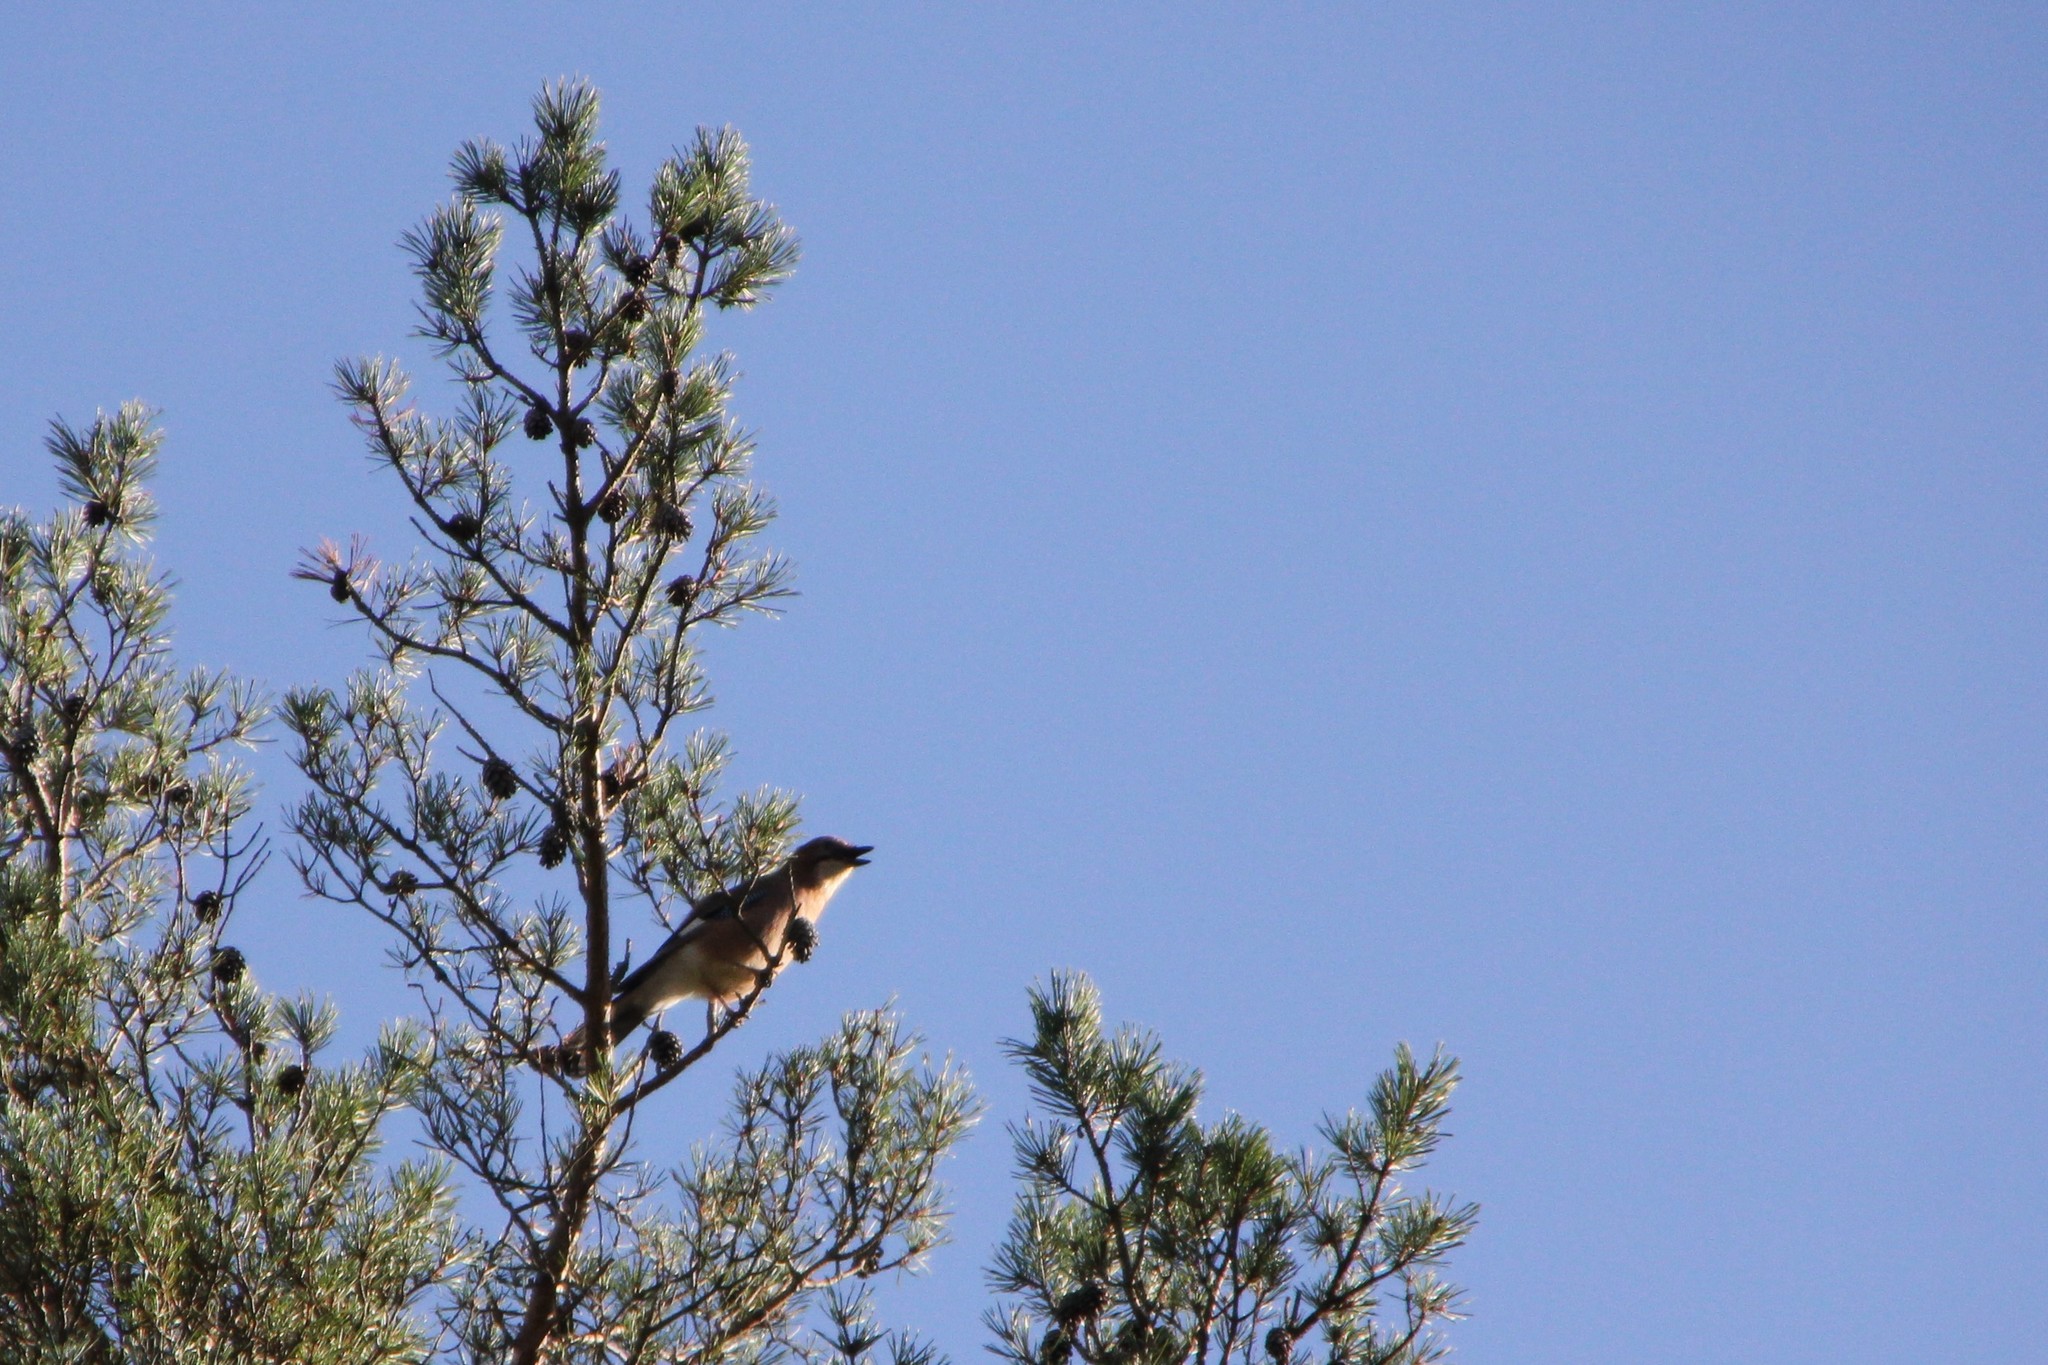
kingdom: Animalia
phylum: Chordata
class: Aves
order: Passeriformes
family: Corvidae
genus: Garrulus
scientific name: Garrulus glandarius
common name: Eurasian jay
